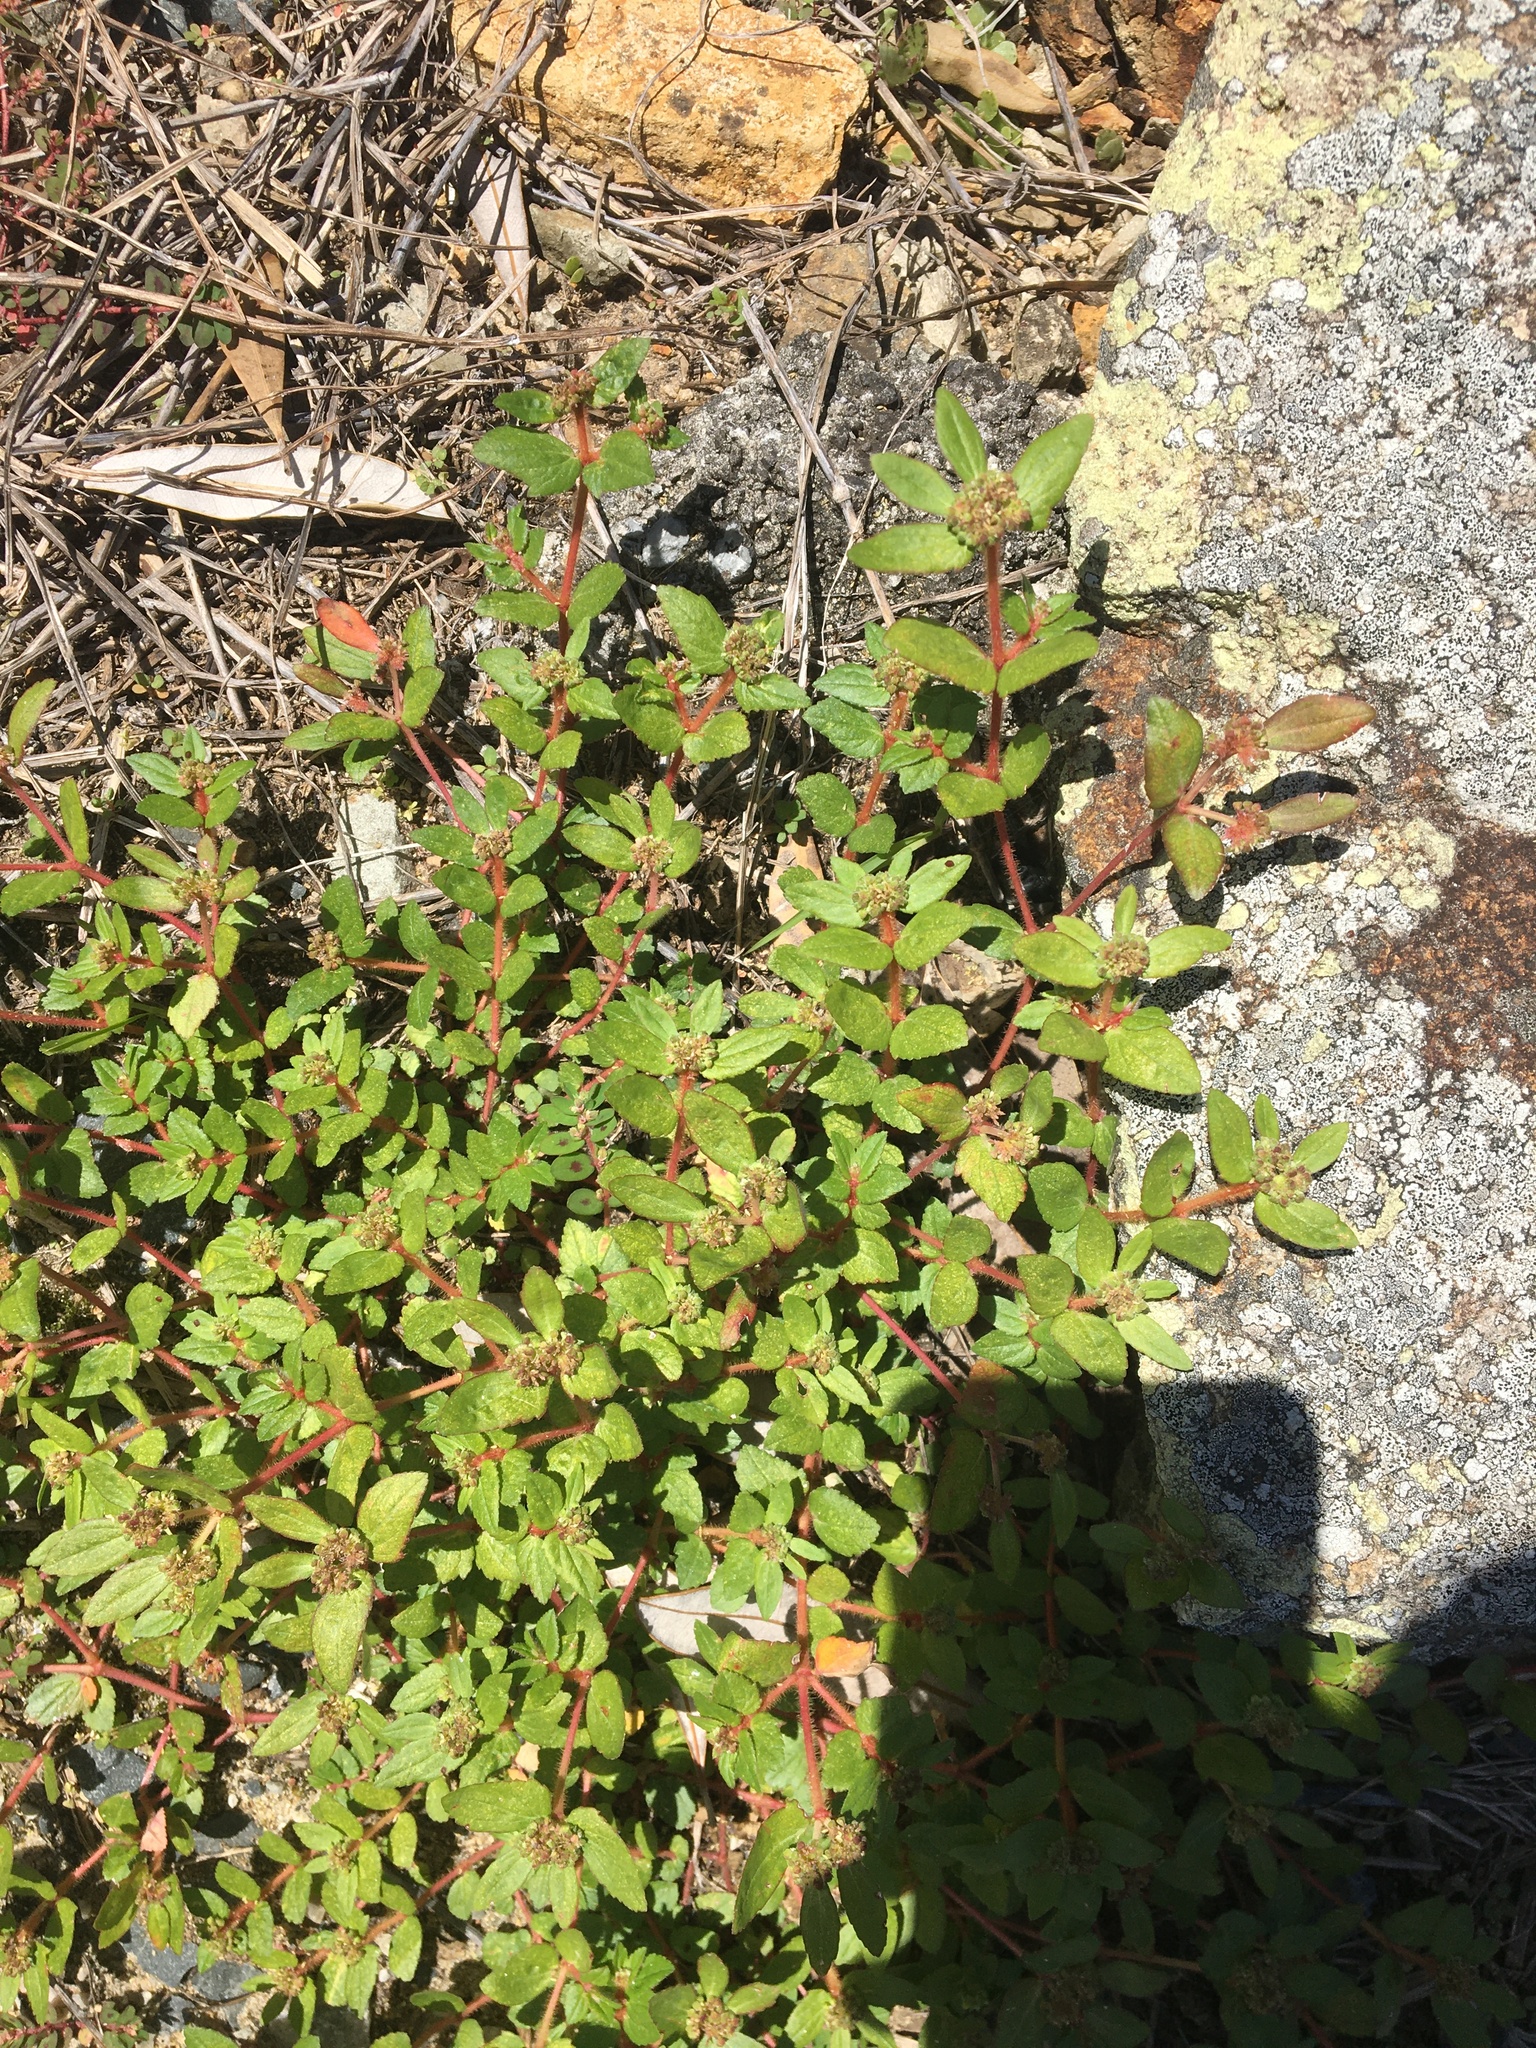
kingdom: Plantae
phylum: Tracheophyta
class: Magnoliopsida
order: Malpighiales
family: Euphorbiaceae
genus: Euphorbia
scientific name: Euphorbia ophthalmica
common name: Florida hammock sandmat
